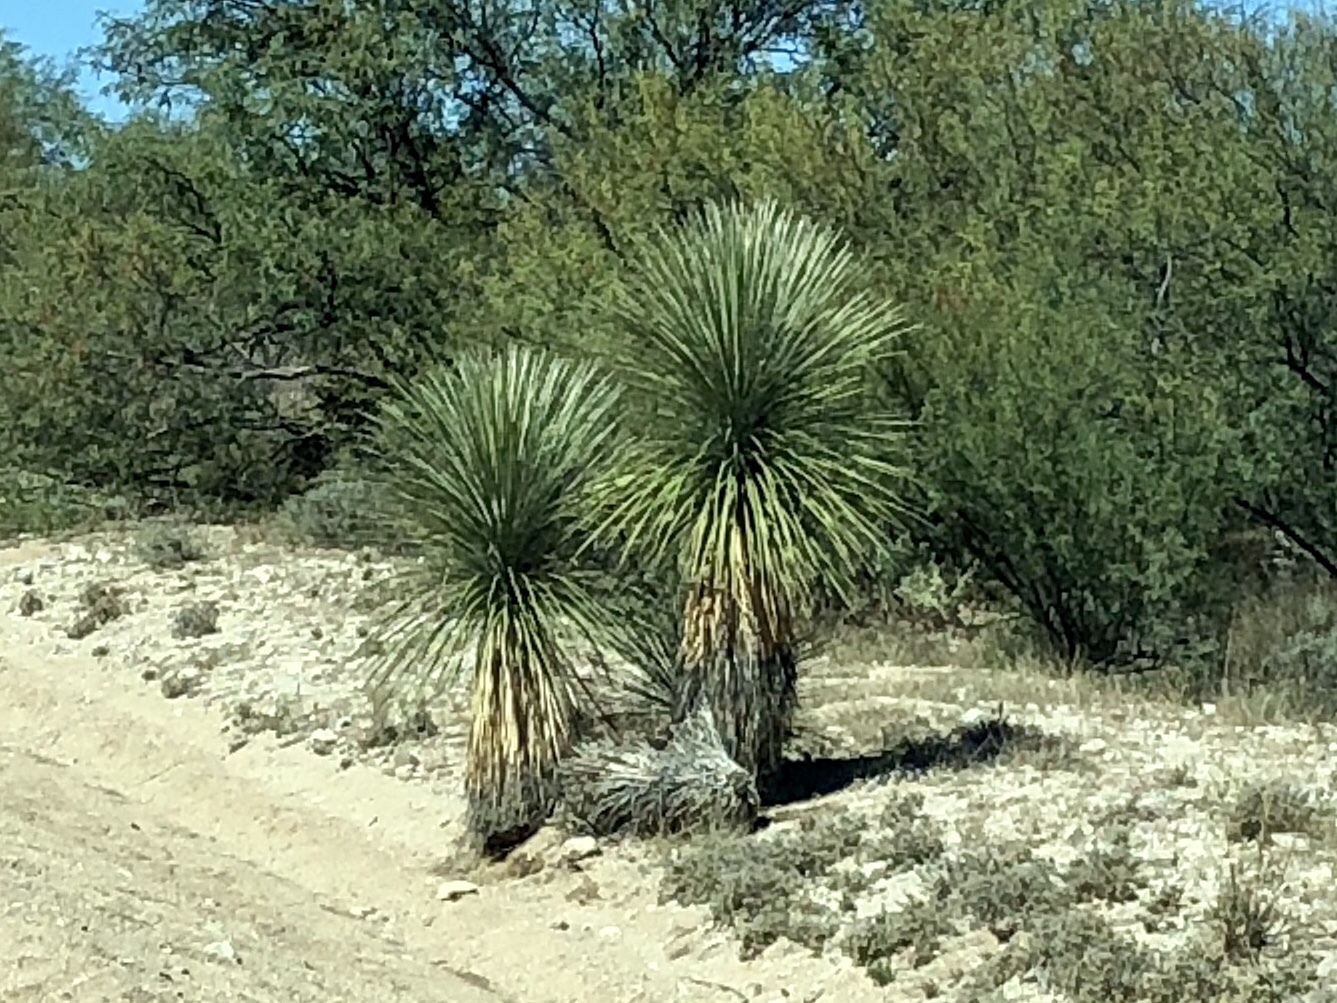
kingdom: Plantae
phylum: Tracheophyta
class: Liliopsida
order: Asparagales
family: Asparagaceae
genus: Yucca
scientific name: Yucca elata
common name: Palmella
